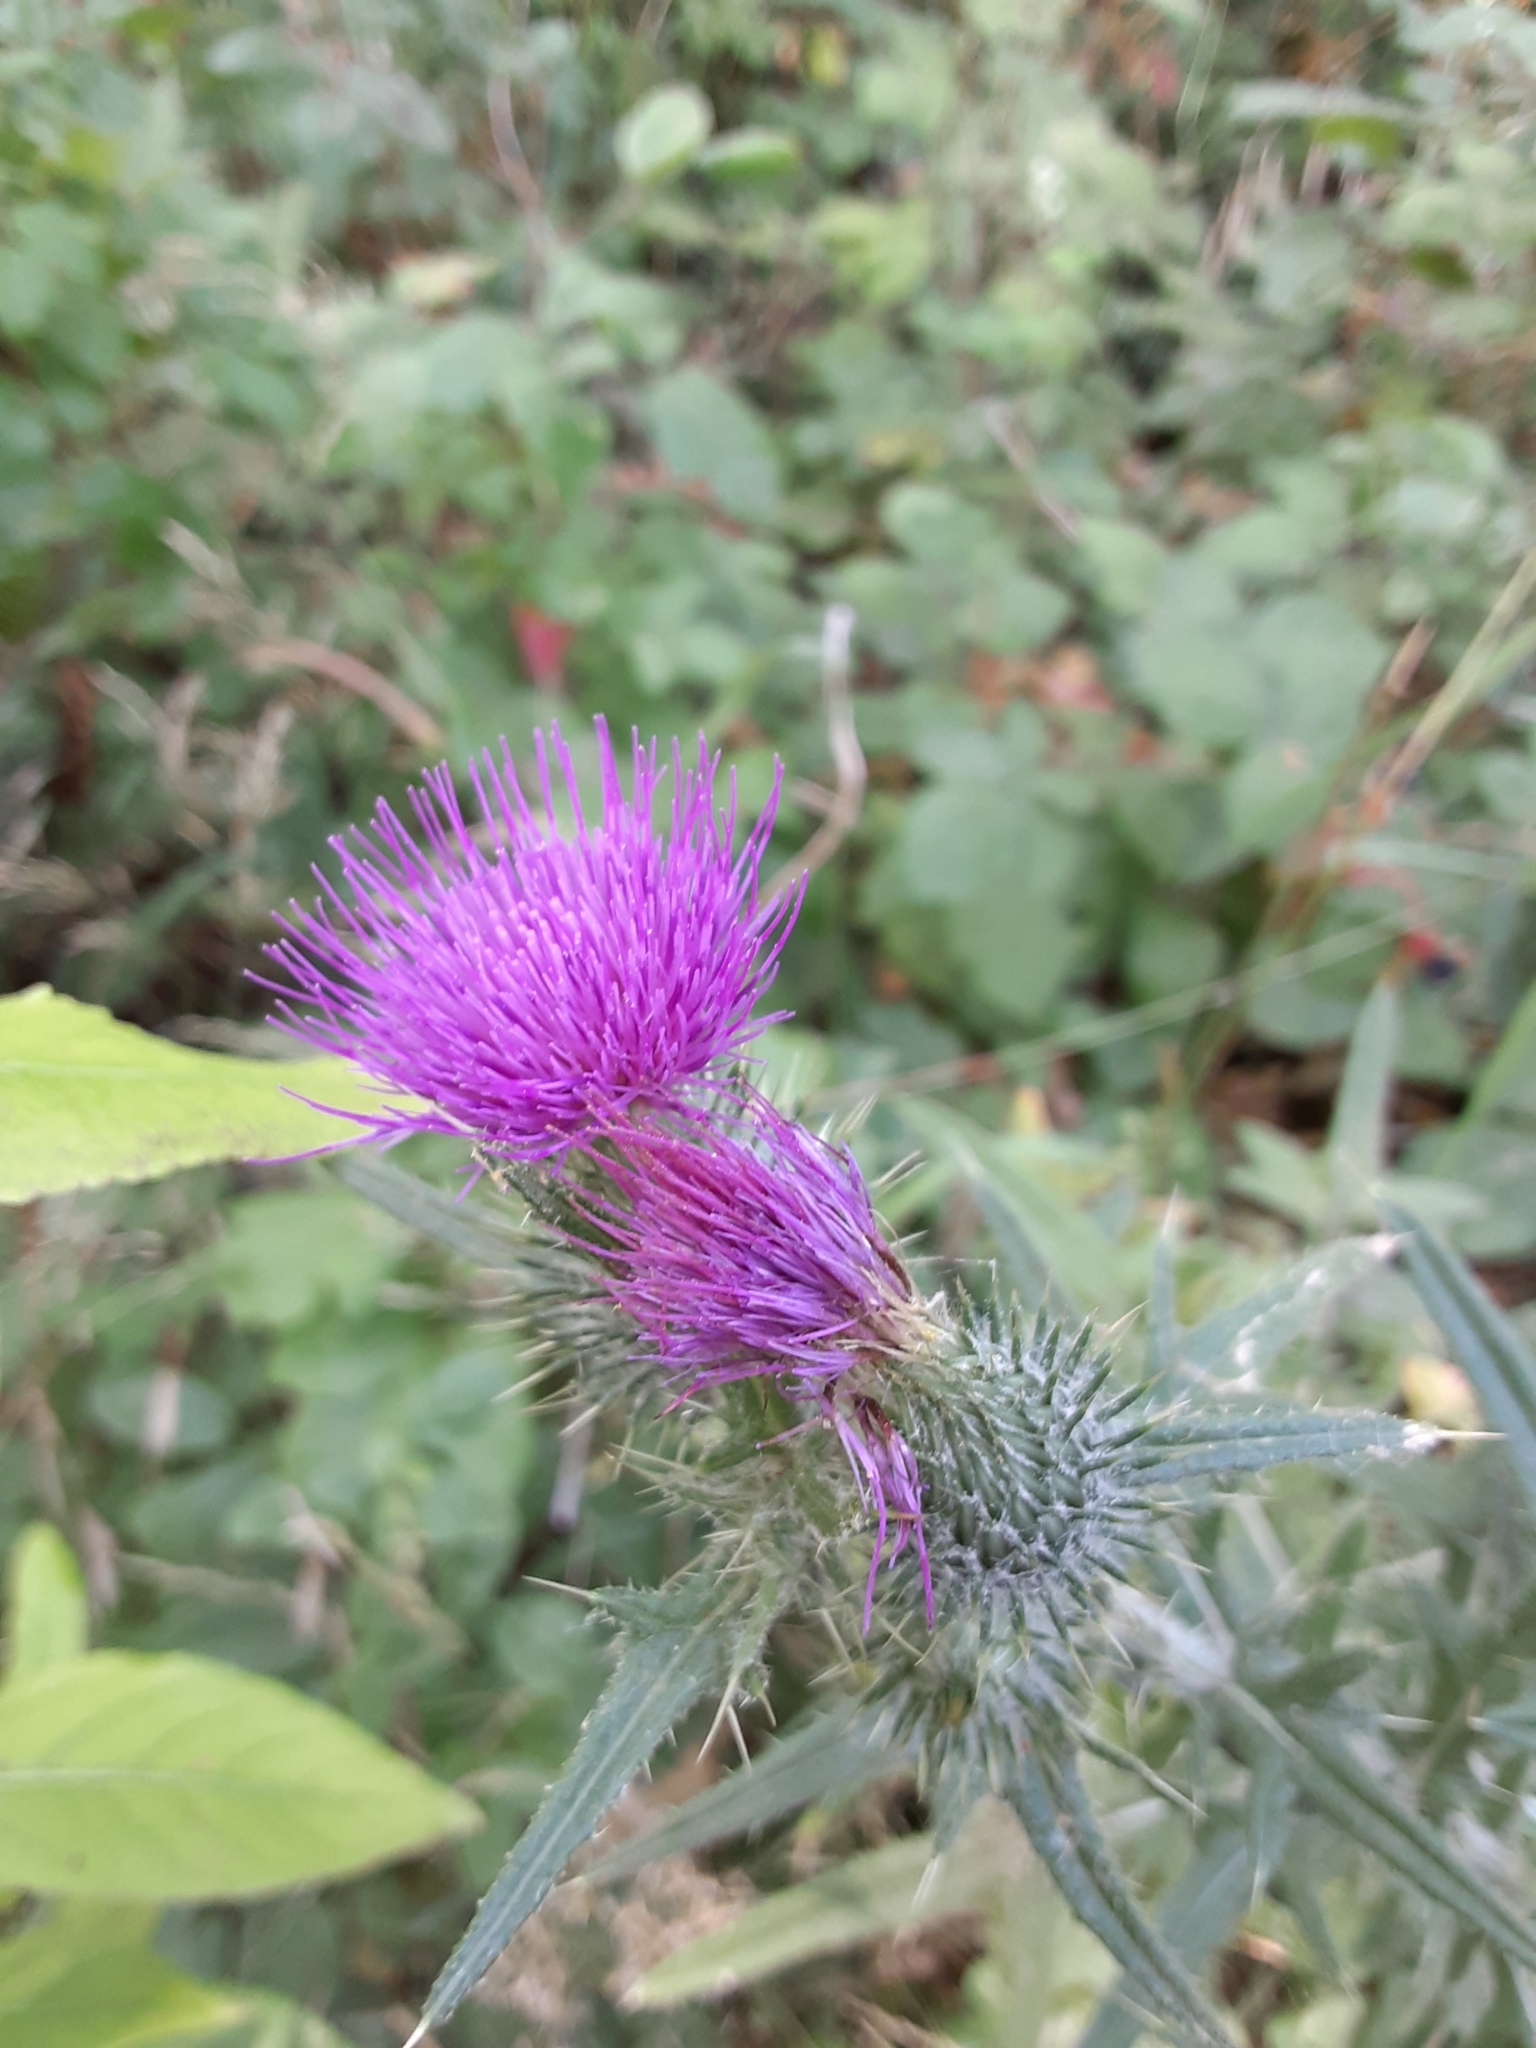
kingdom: Plantae
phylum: Tracheophyta
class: Magnoliopsida
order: Asterales
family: Asteraceae
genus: Cirsium
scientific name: Cirsium vulgare
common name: Bull thistle
